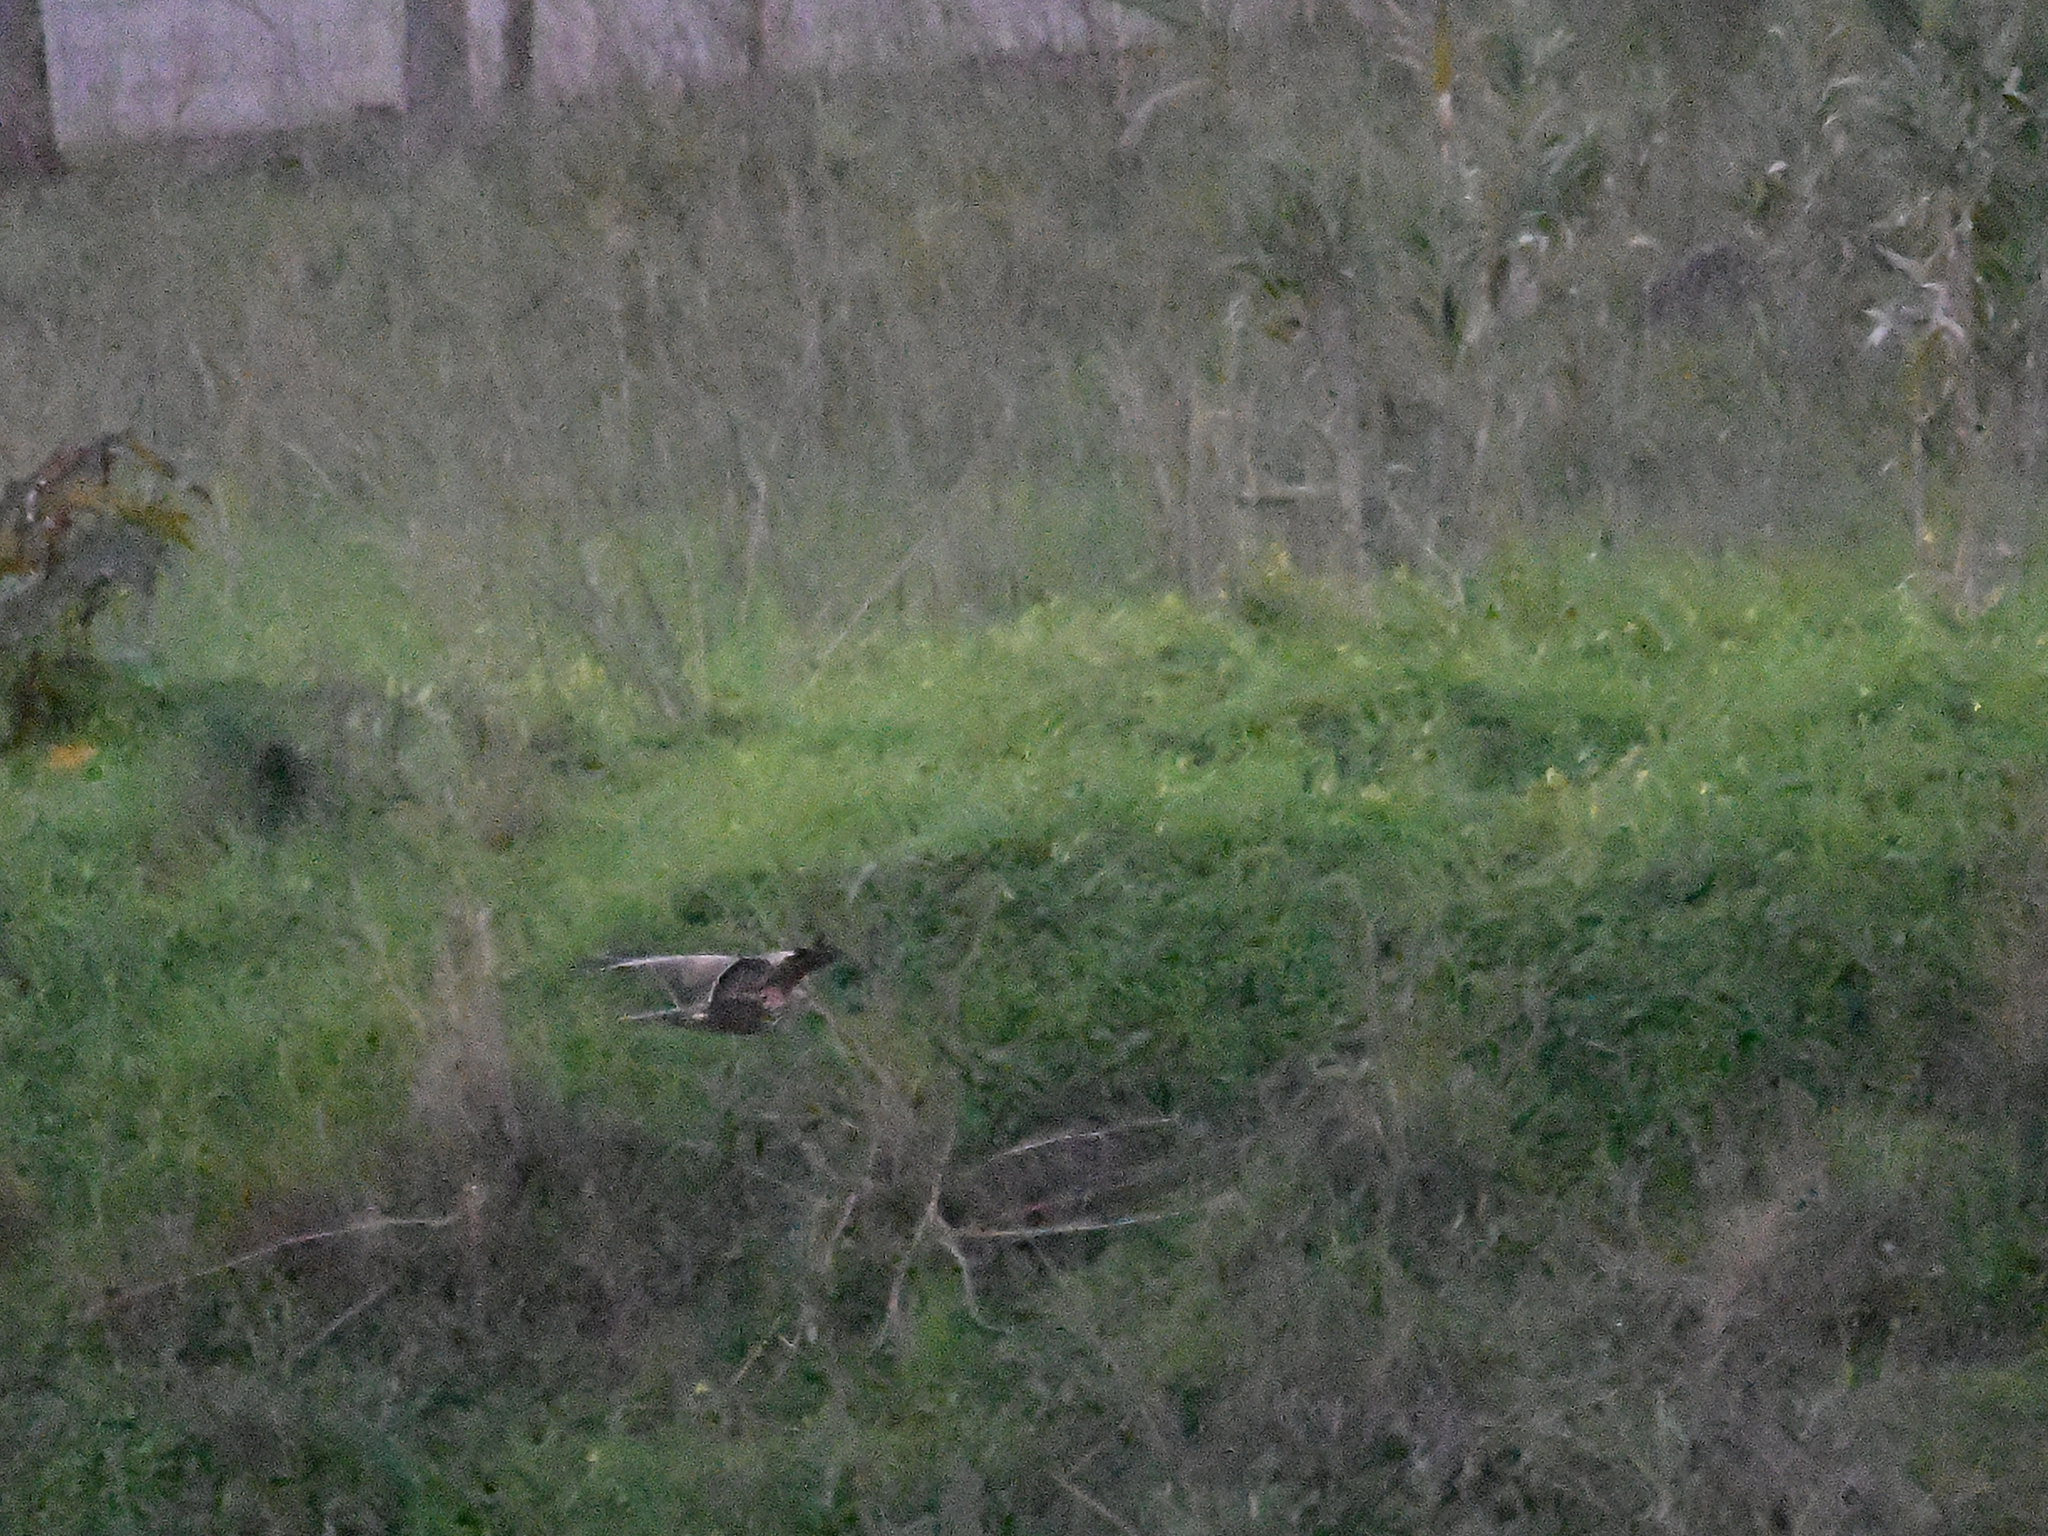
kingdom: Animalia
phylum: Chordata
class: Aves
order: Accipitriformes
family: Accipitridae
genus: Buteo
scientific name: Buteo buteo
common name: Common buzzard
